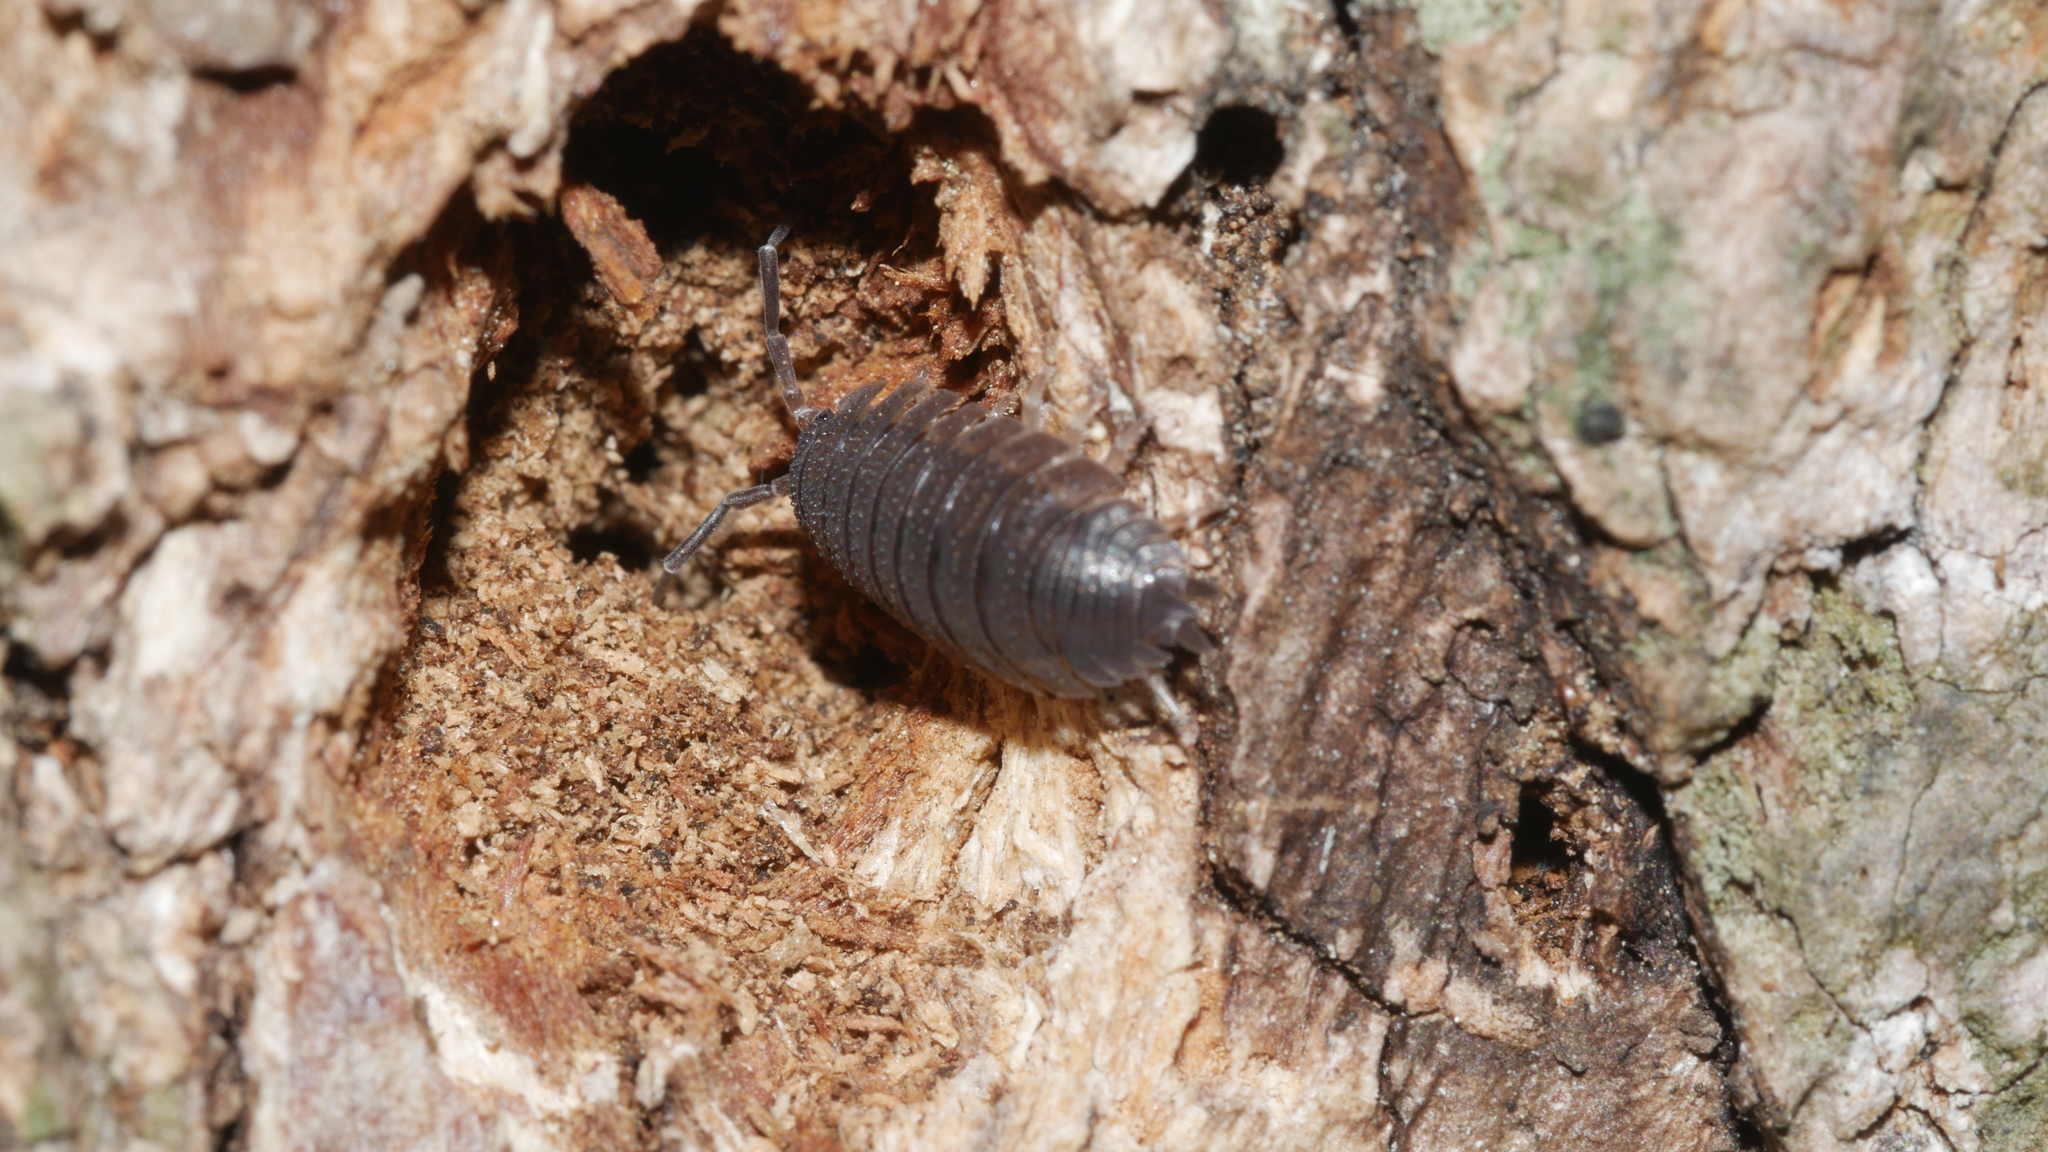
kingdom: Animalia
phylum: Arthropoda
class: Malacostraca
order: Isopoda
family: Porcellionidae
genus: Porcellio
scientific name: Porcellio scaber
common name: Common rough woodlouse
